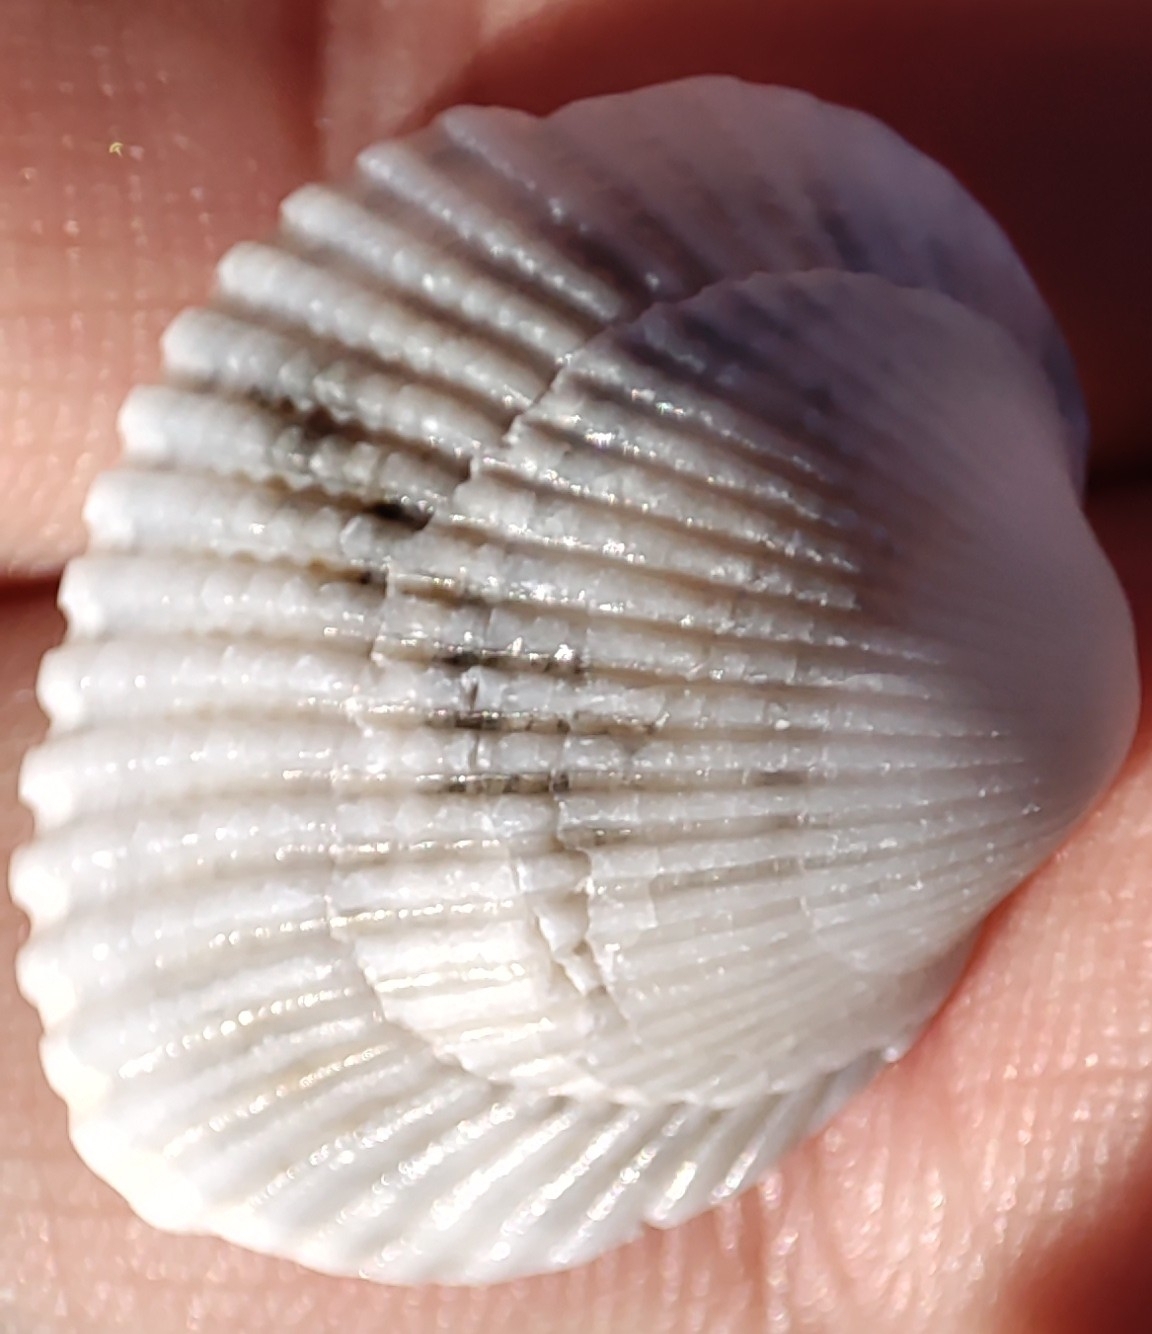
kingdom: Animalia
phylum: Mollusca
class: Bivalvia
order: Arcida
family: Arcidae
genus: Anadara
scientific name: Anadara kagoshimensis
